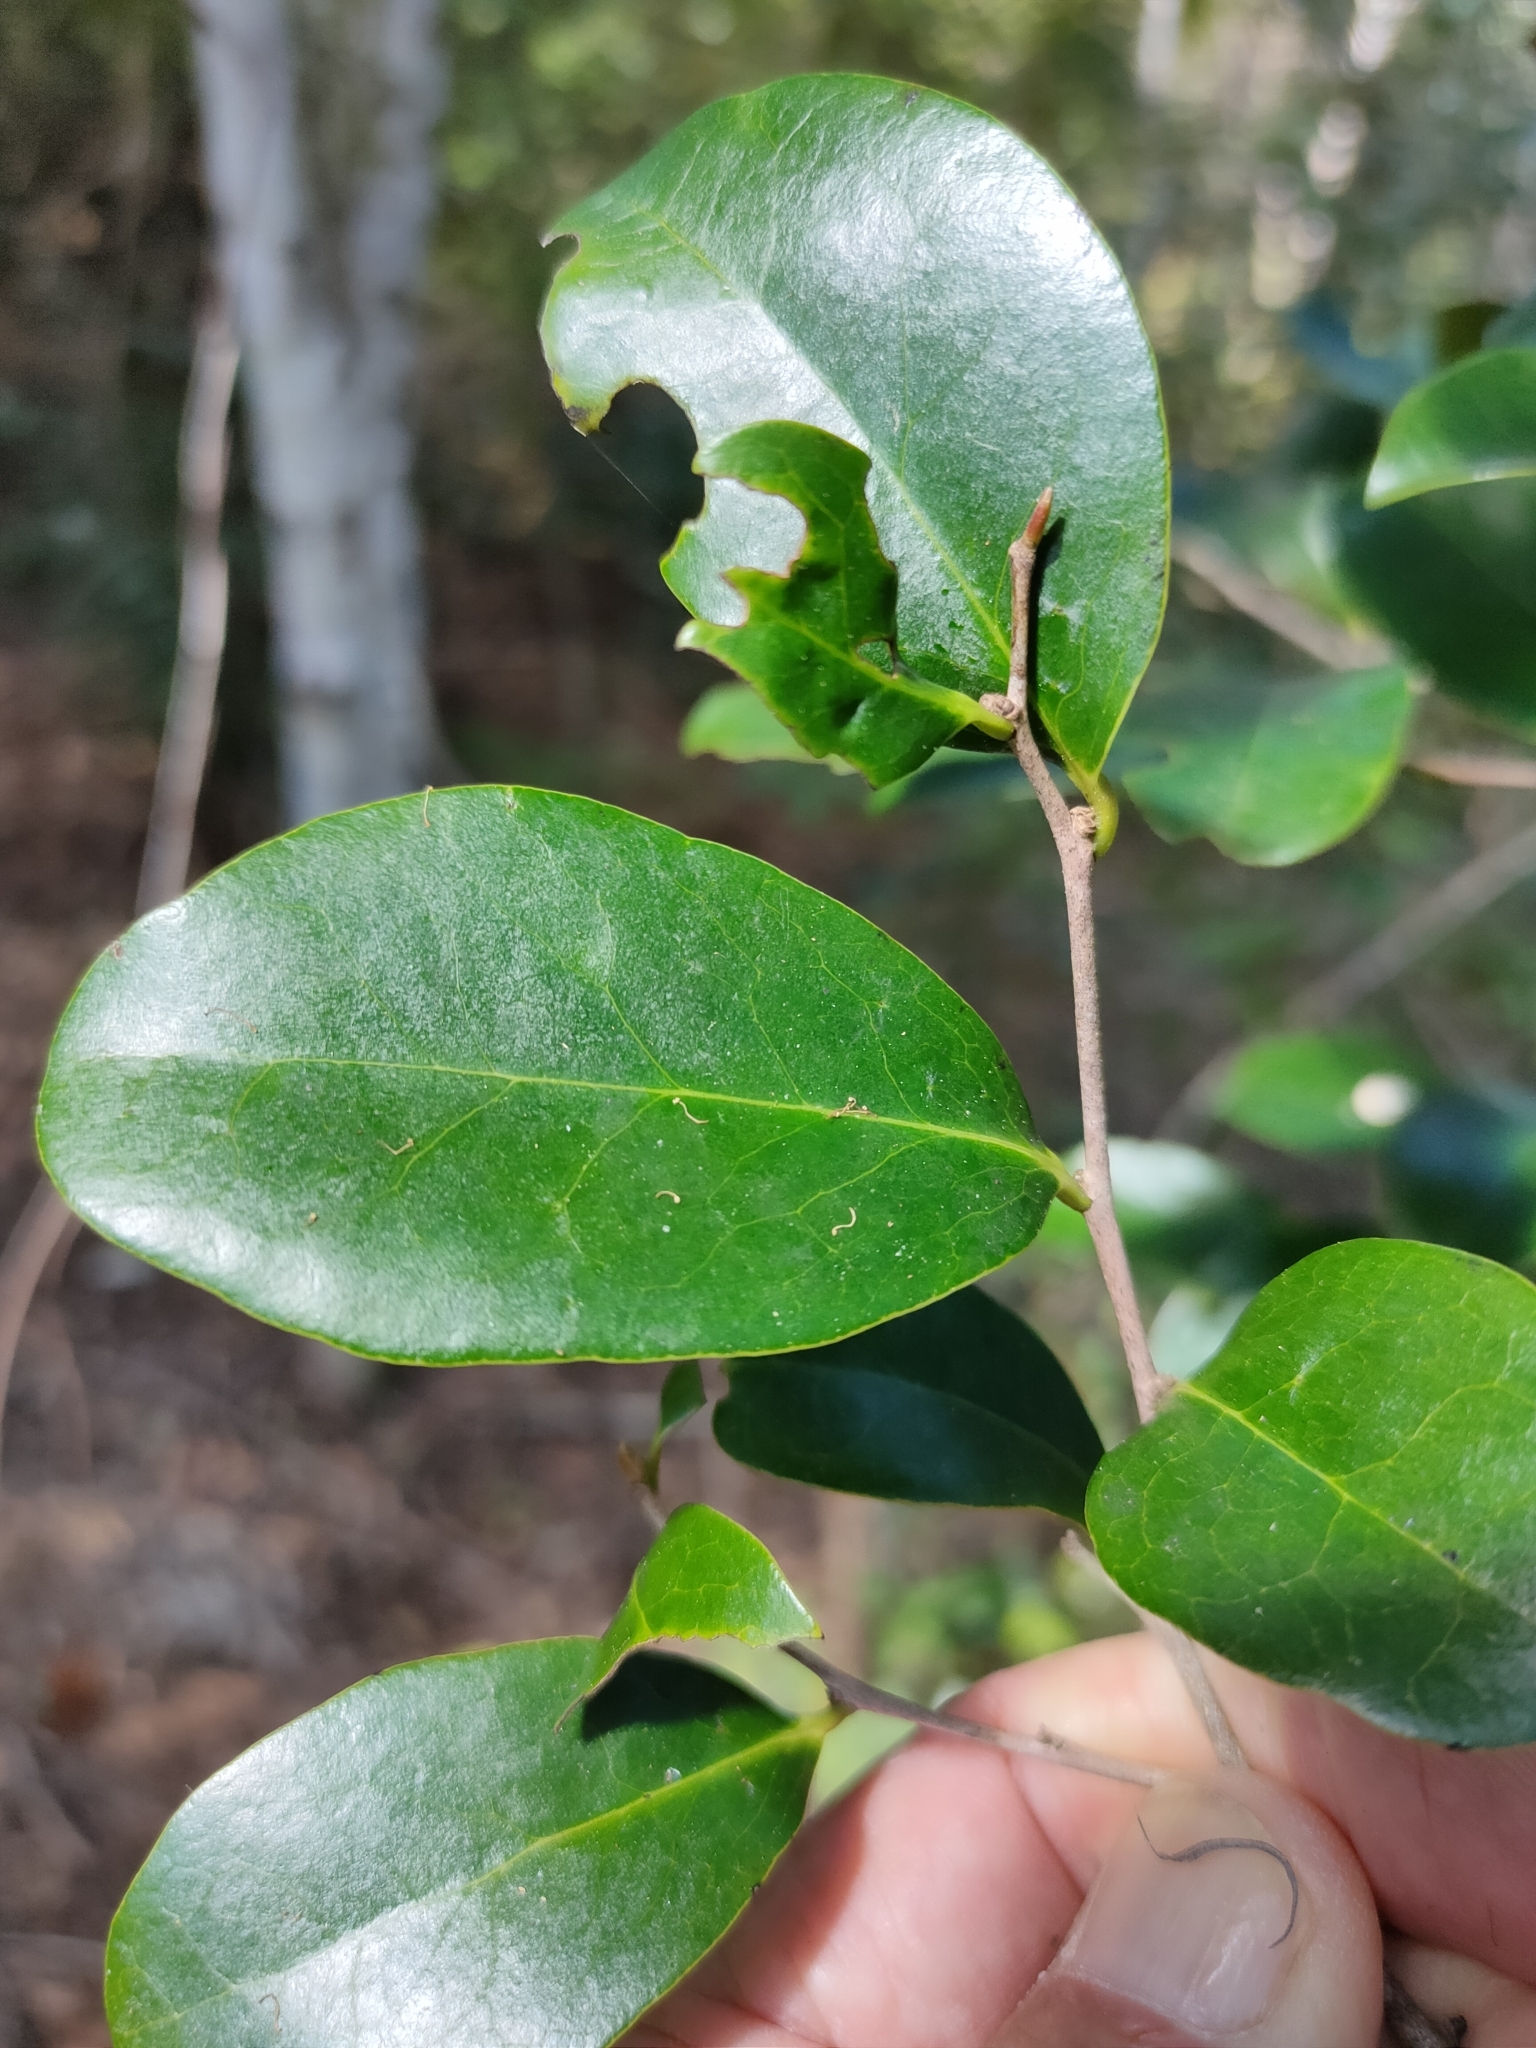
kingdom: Plantae
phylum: Tracheophyta
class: Magnoliopsida
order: Ericales
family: Ebenaceae
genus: Diospyros
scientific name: Diospyros geminata
